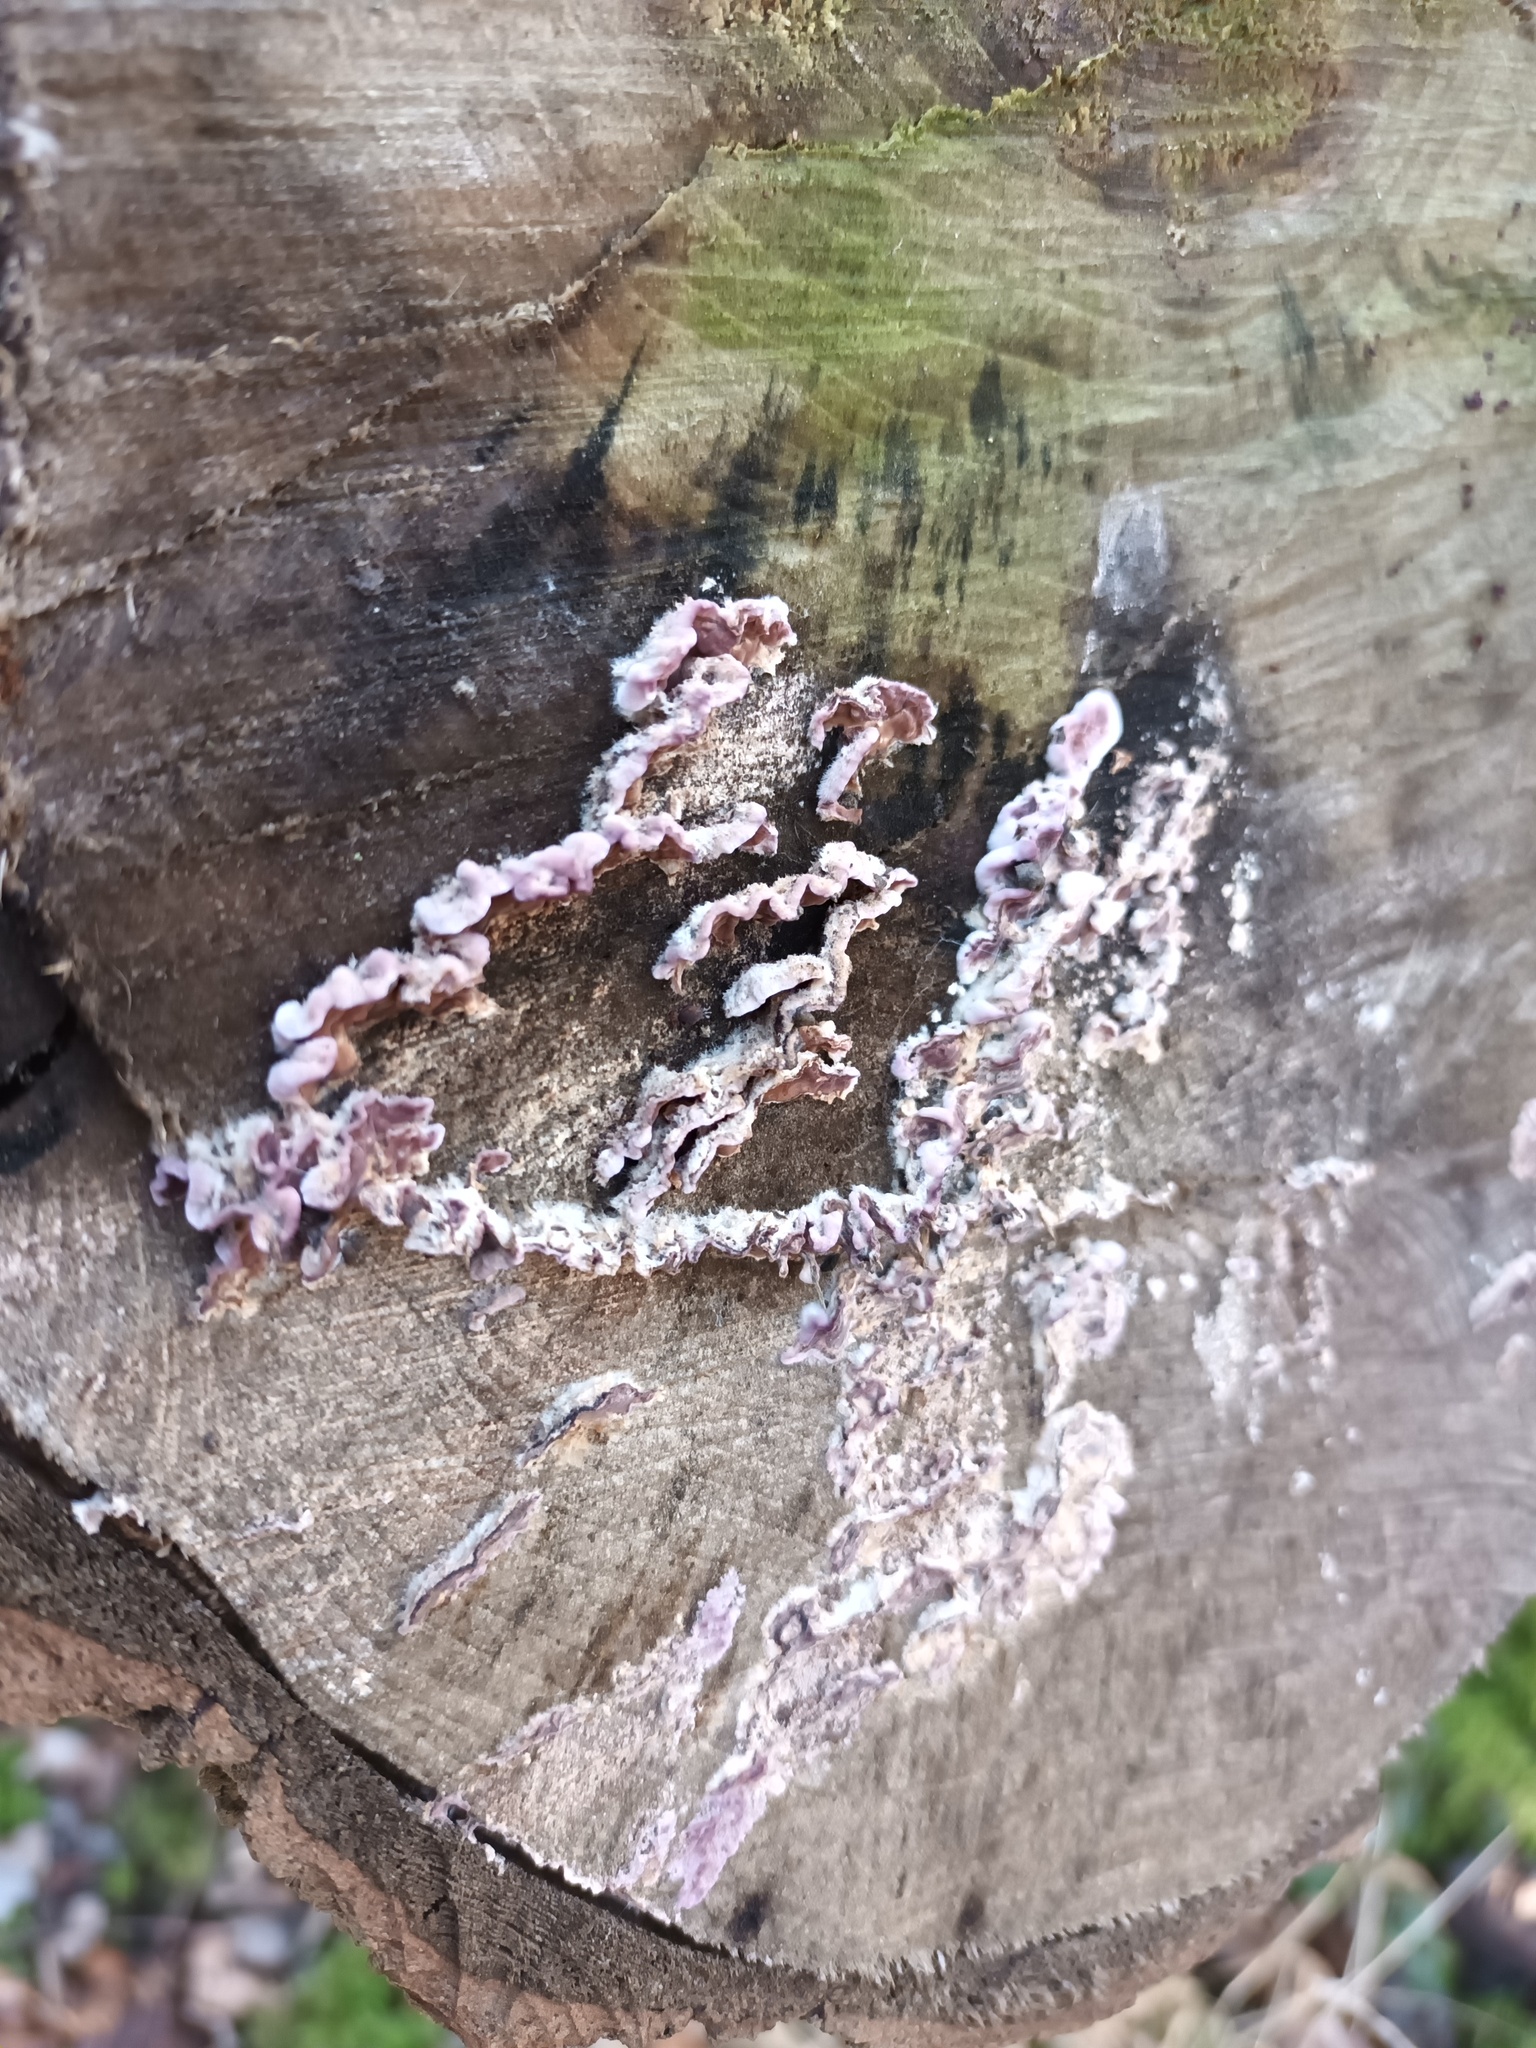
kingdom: Fungi
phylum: Basidiomycota
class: Agaricomycetes
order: Agaricales
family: Cyphellaceae
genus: Chondrostereum
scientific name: Chondrostereum purpureum
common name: Silver leaf disease
